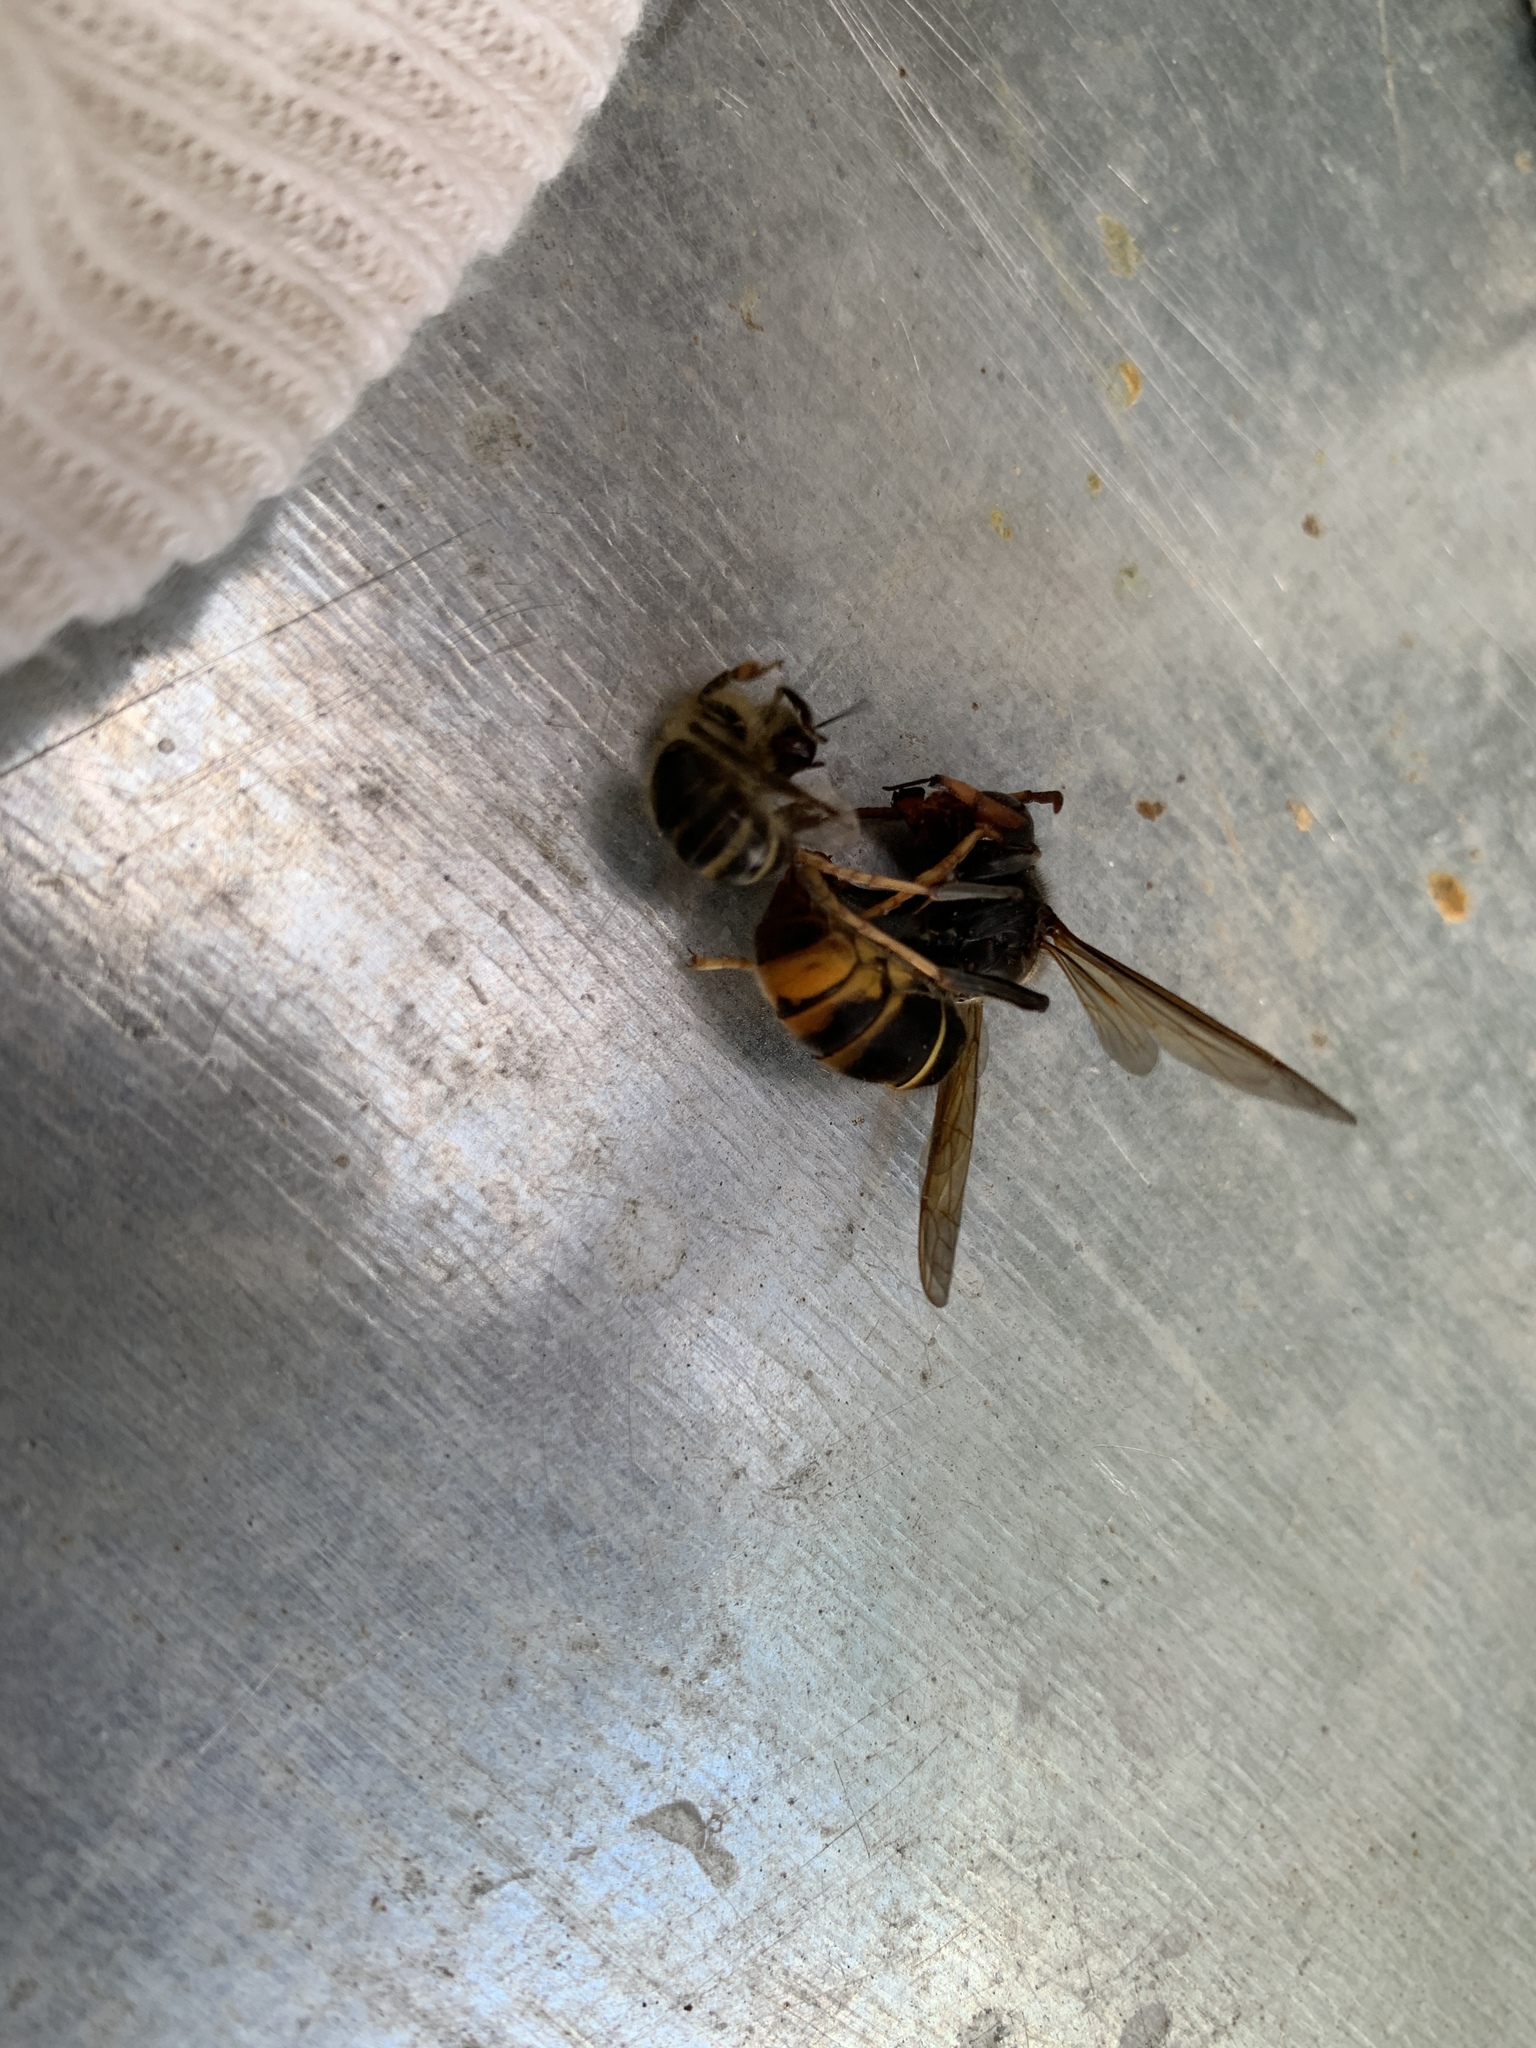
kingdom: Animalia
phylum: Arthropoda
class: Insecta
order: Hymenoptera
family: Vespidae
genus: Vespa
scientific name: Vespa velutina
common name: Asian hornet
